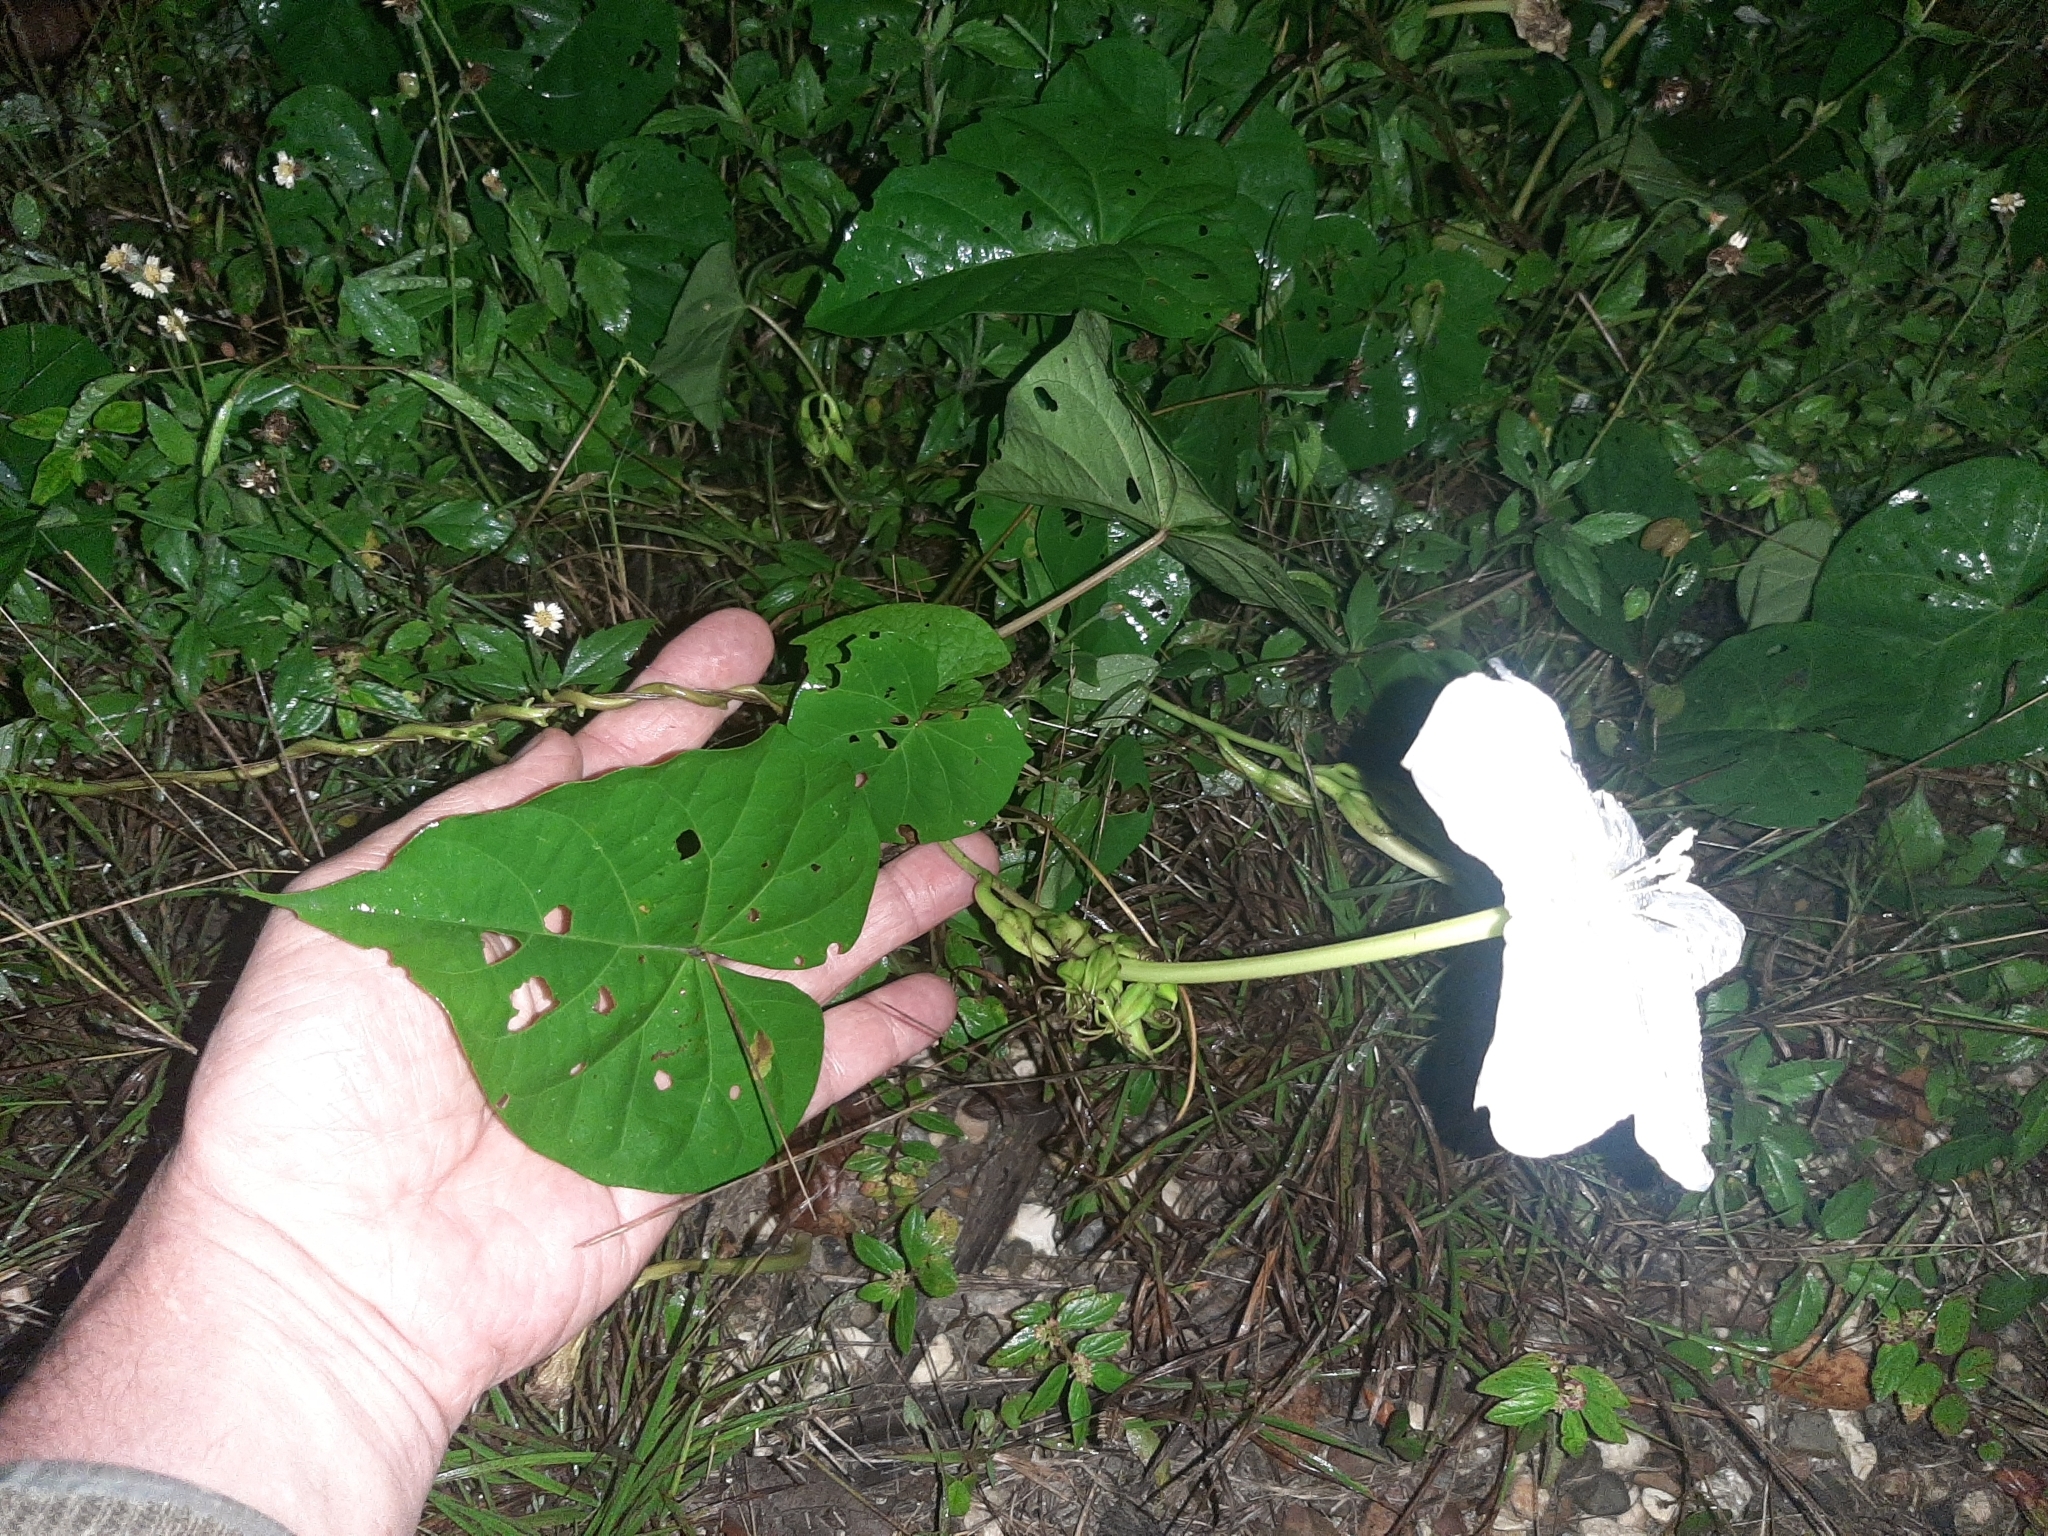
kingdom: Plantae
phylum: Tracheophyta
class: Magnoliopsida
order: Solanales
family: Convolvulaceae
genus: Ipomoea
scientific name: Ipomoea alba
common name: Moonflower
